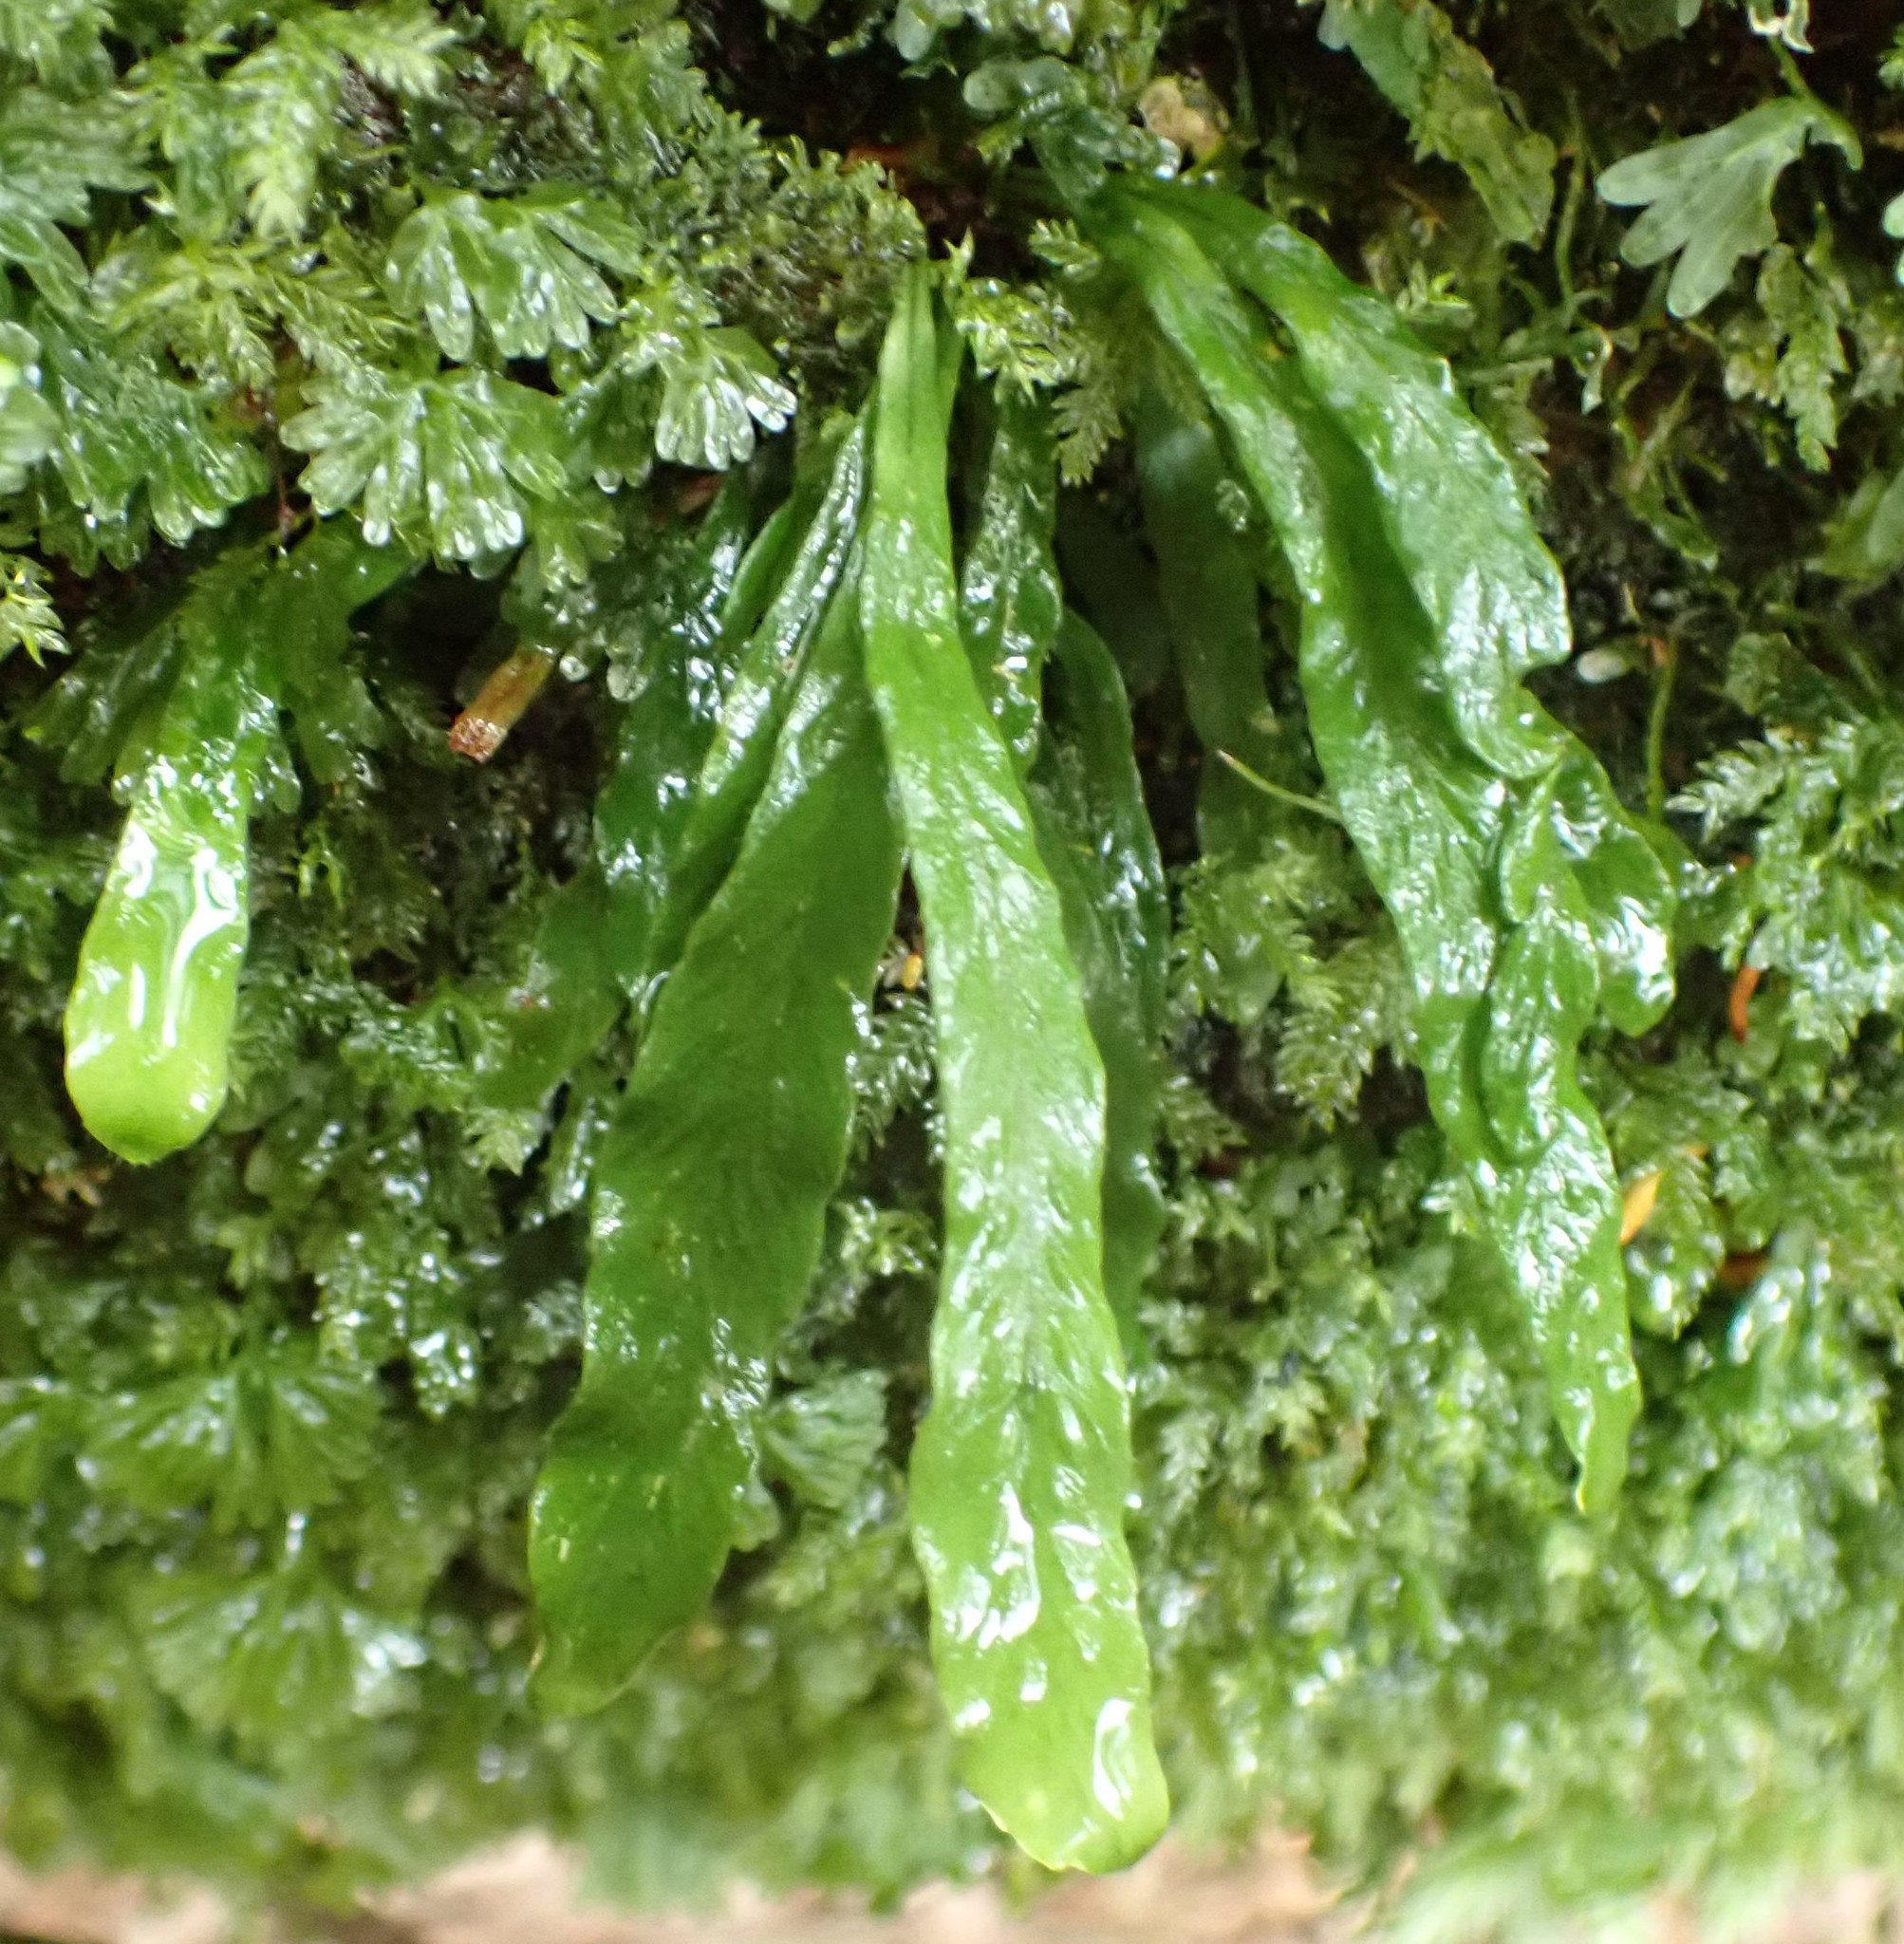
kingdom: Plantae
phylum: Tracheophyta
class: Polypodiopsida
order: Polypodiales
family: Polypodiaceae
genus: Notogrammitis
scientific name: Notogrammitis billardierei
